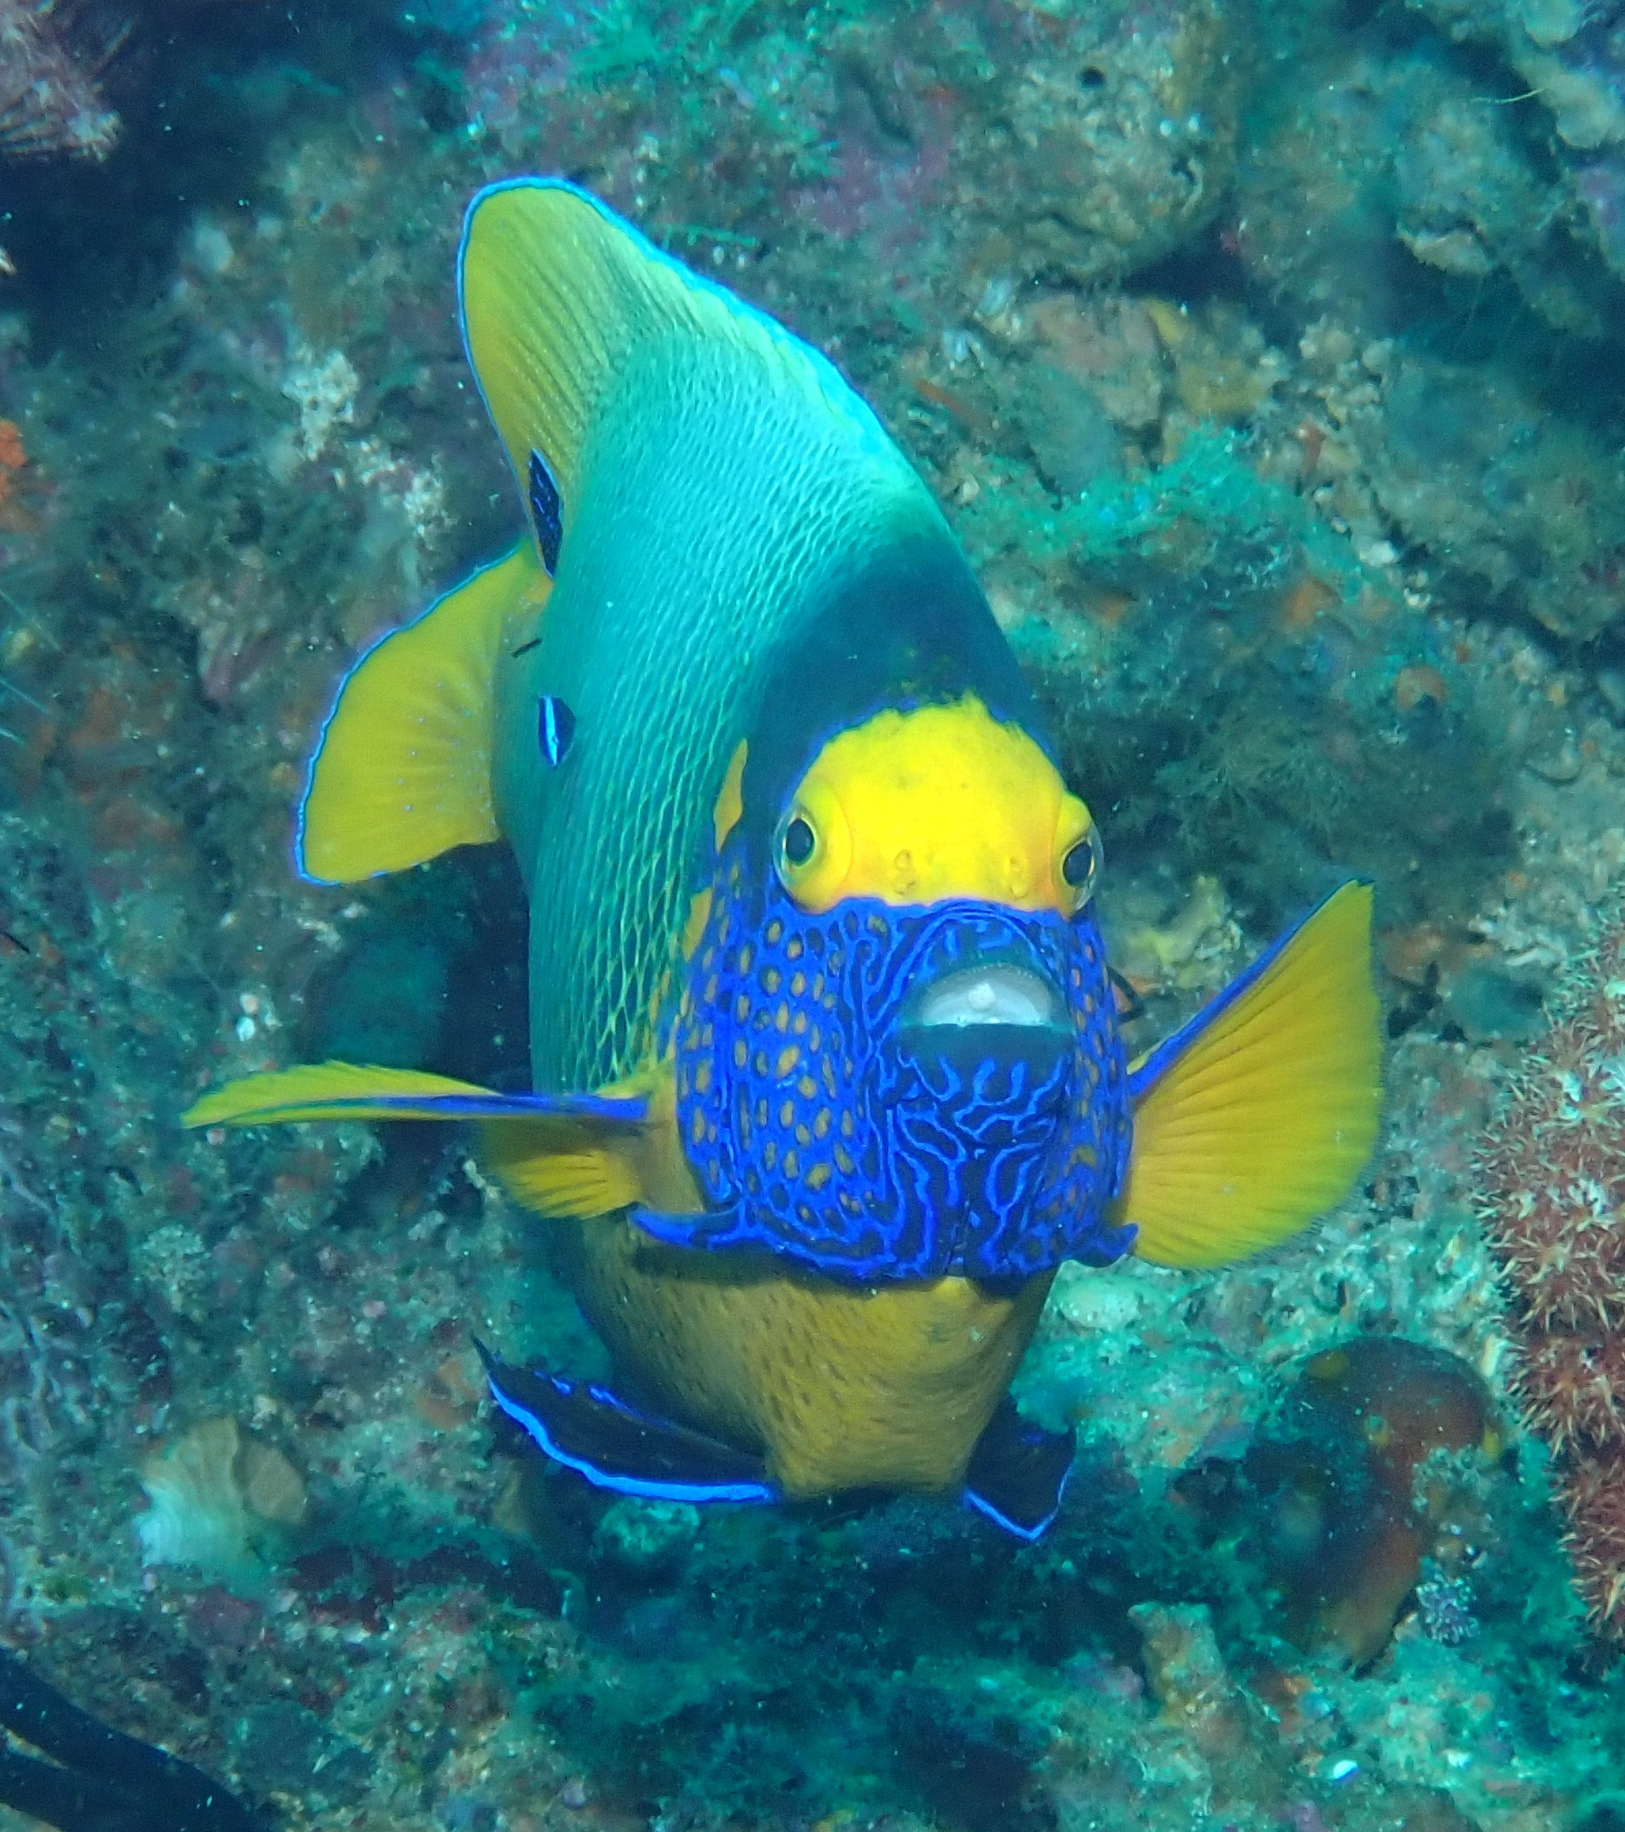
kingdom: Animalia
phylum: Chordata
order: Perciformes
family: Pomacanthidae
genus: Pomacanthus
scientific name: Pomacanthus xanthometopon
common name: Yellow-faced angelfish
